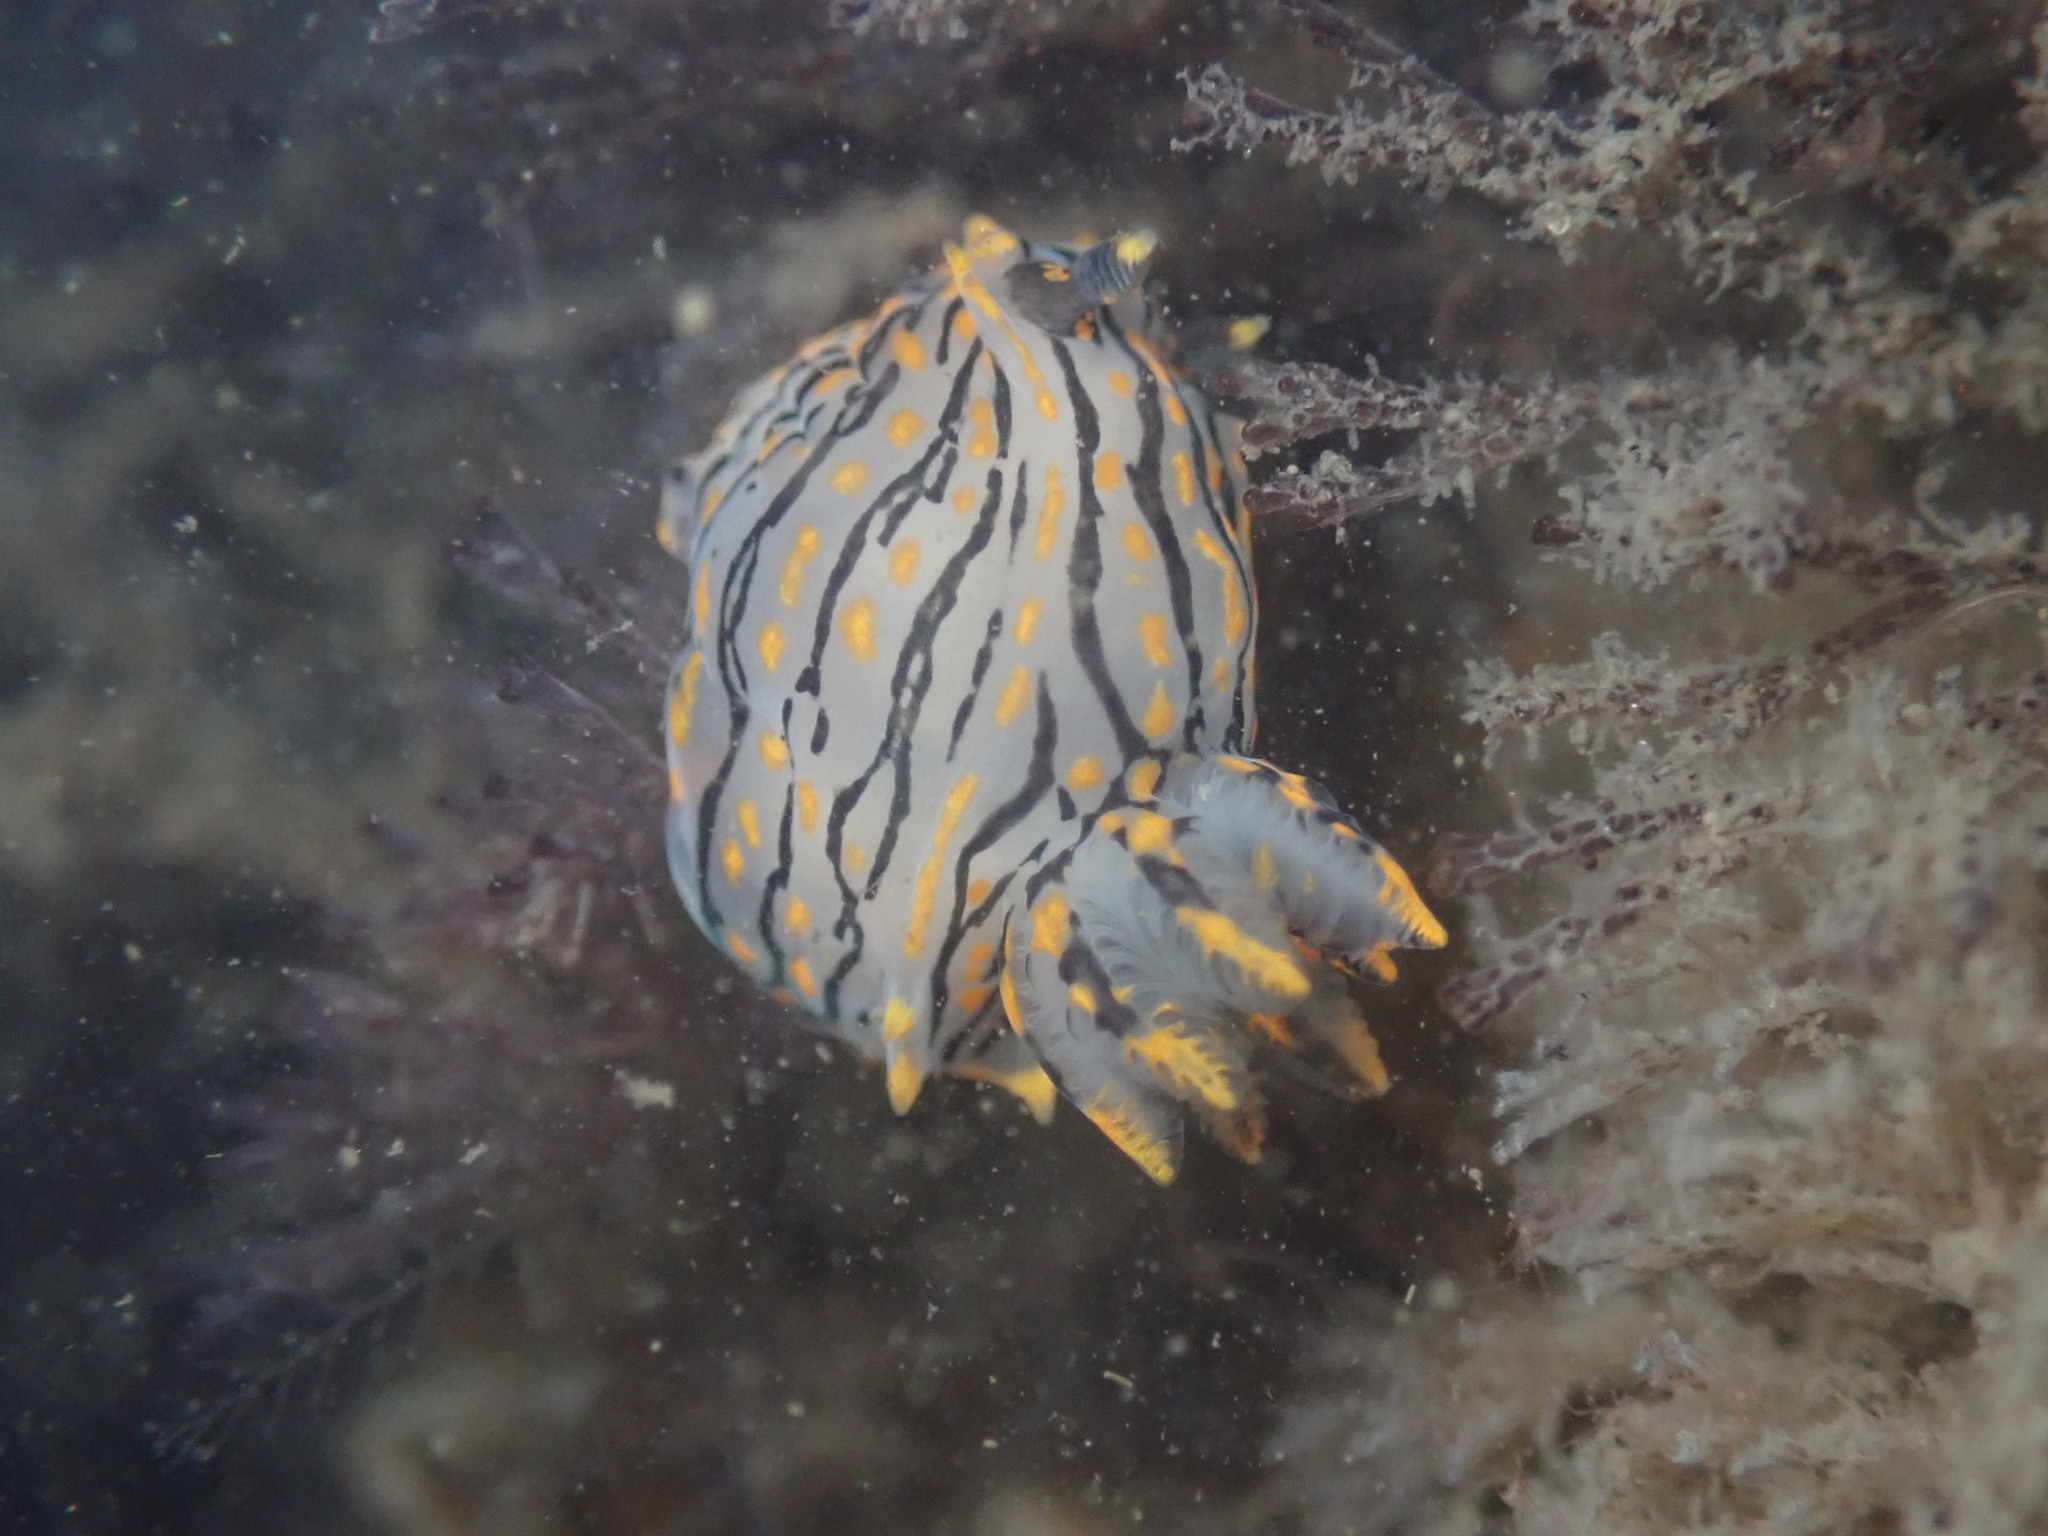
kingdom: Animalia
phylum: Mollusca
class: Gastropoda
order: Nudibranchia
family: Polyceridae
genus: Polycera
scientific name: Polycera atra
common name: Orange-spike polycera
